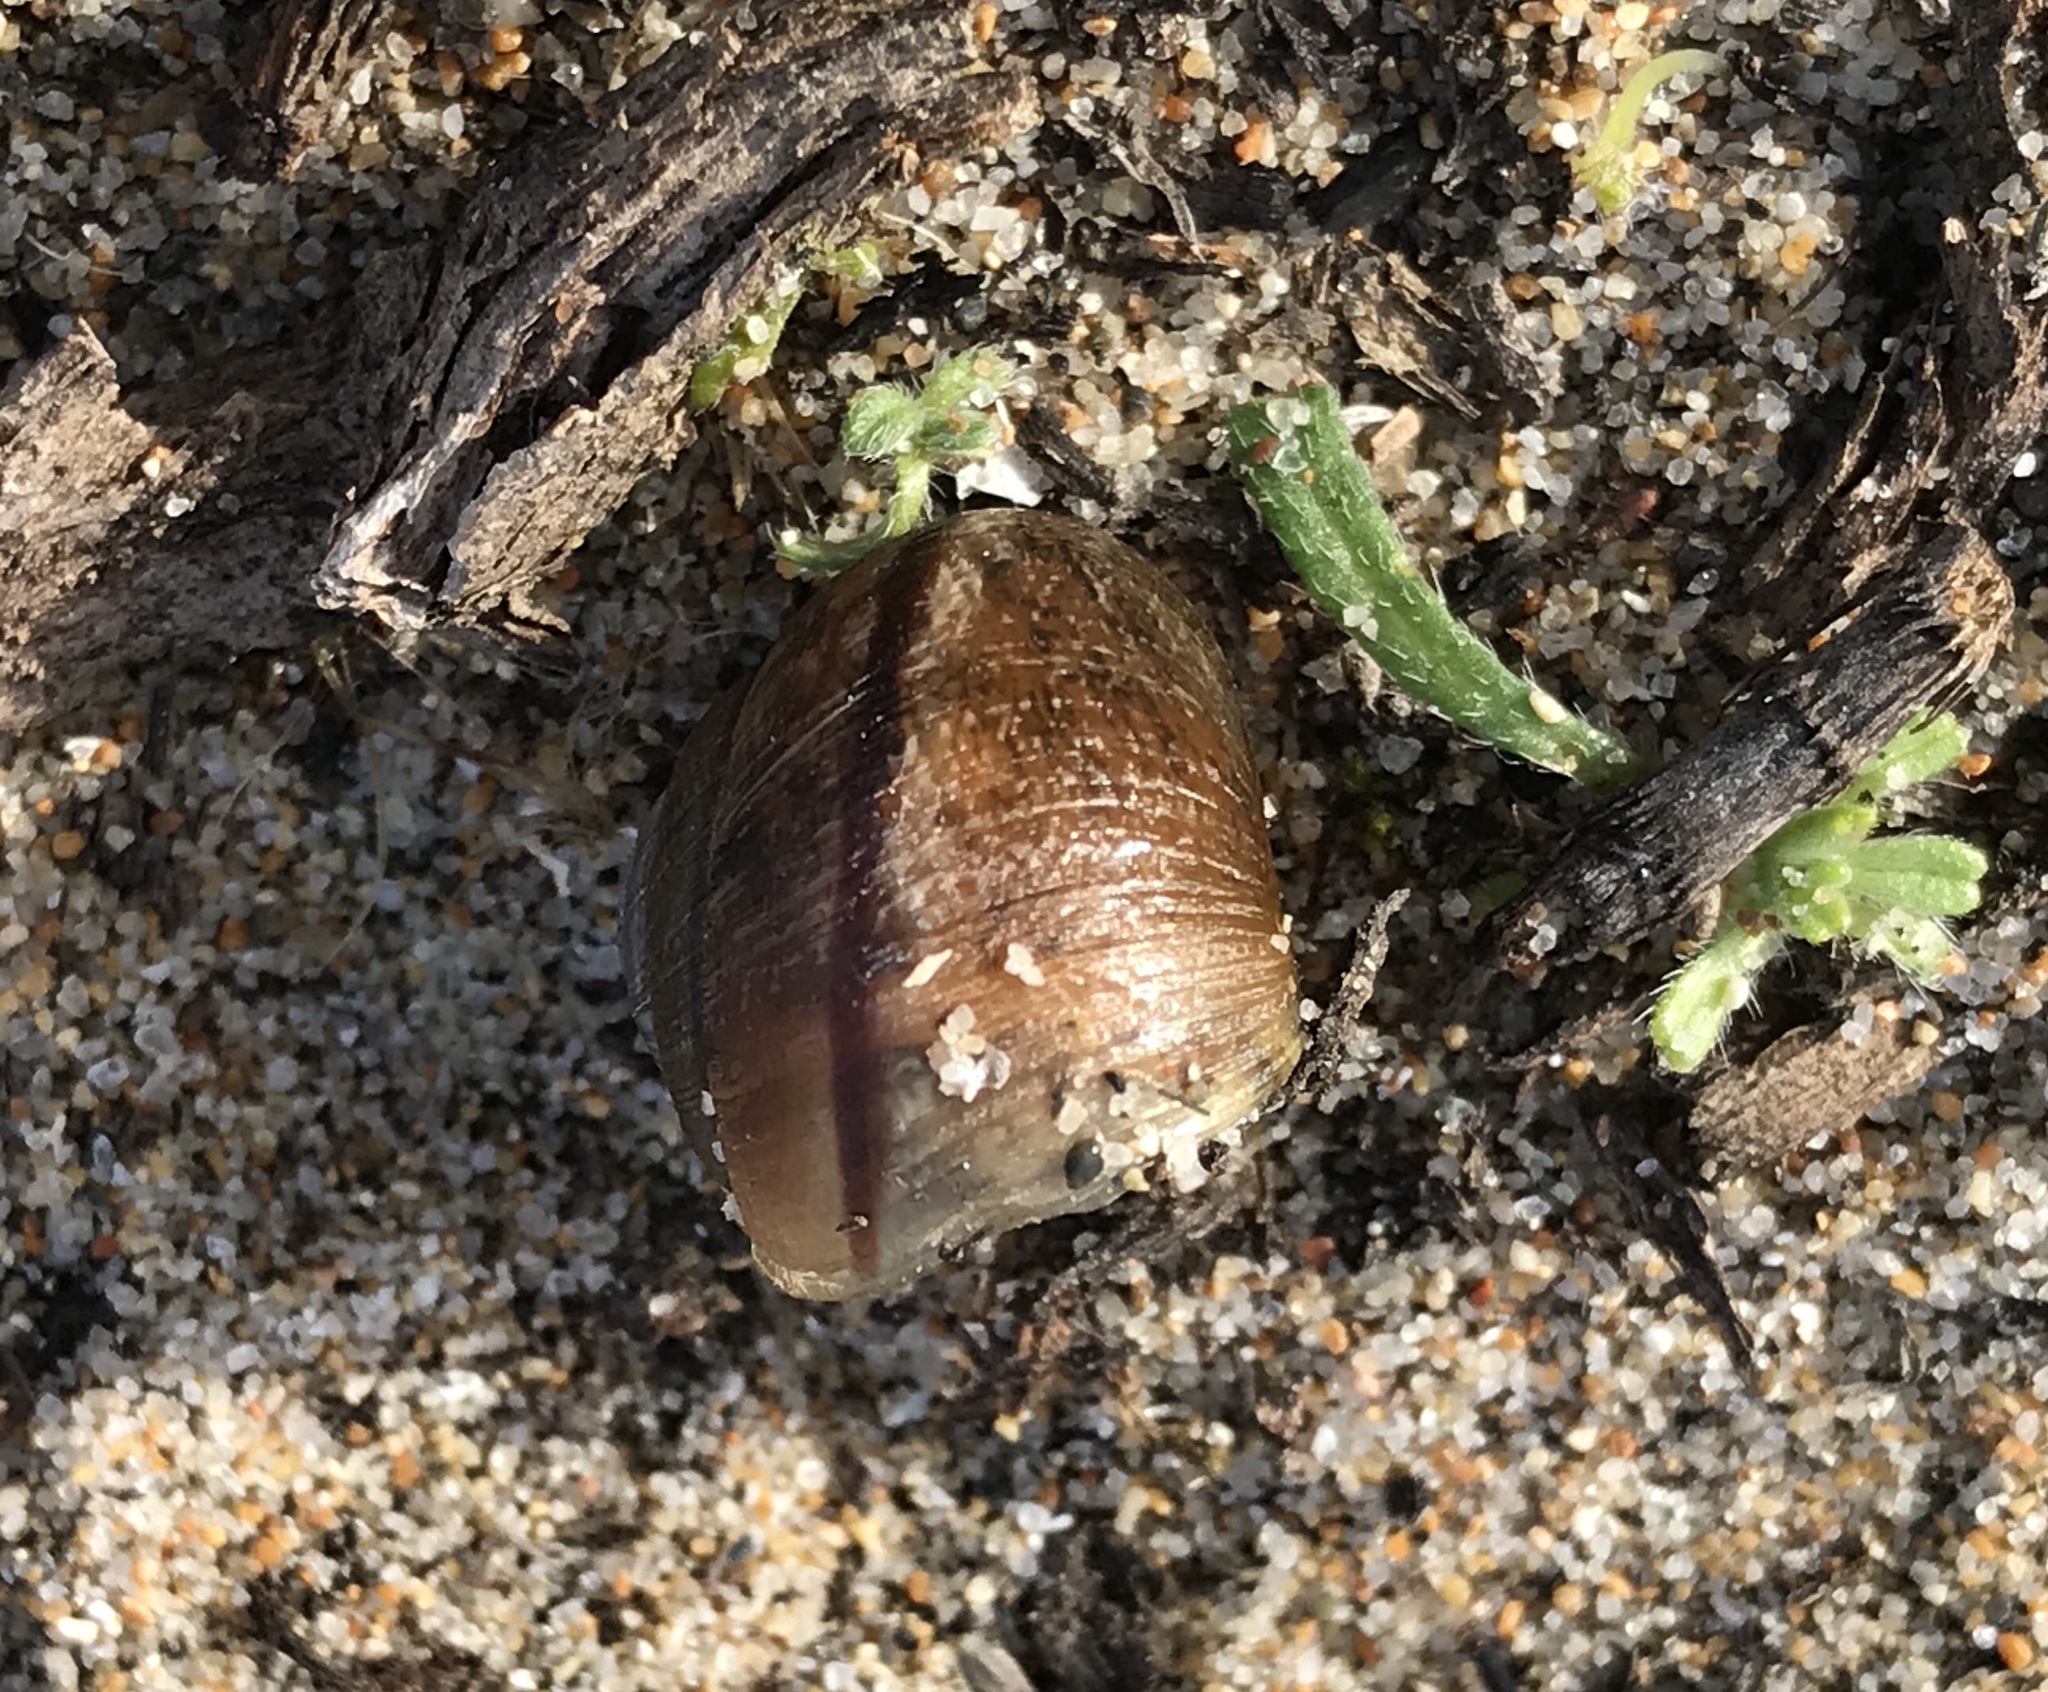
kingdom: Animalia
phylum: Mollusca
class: Gastropoda
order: Stylommatophora
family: Xanthonychidae
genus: Helminthoglypta
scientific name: Helminthoglypta nickliniana
